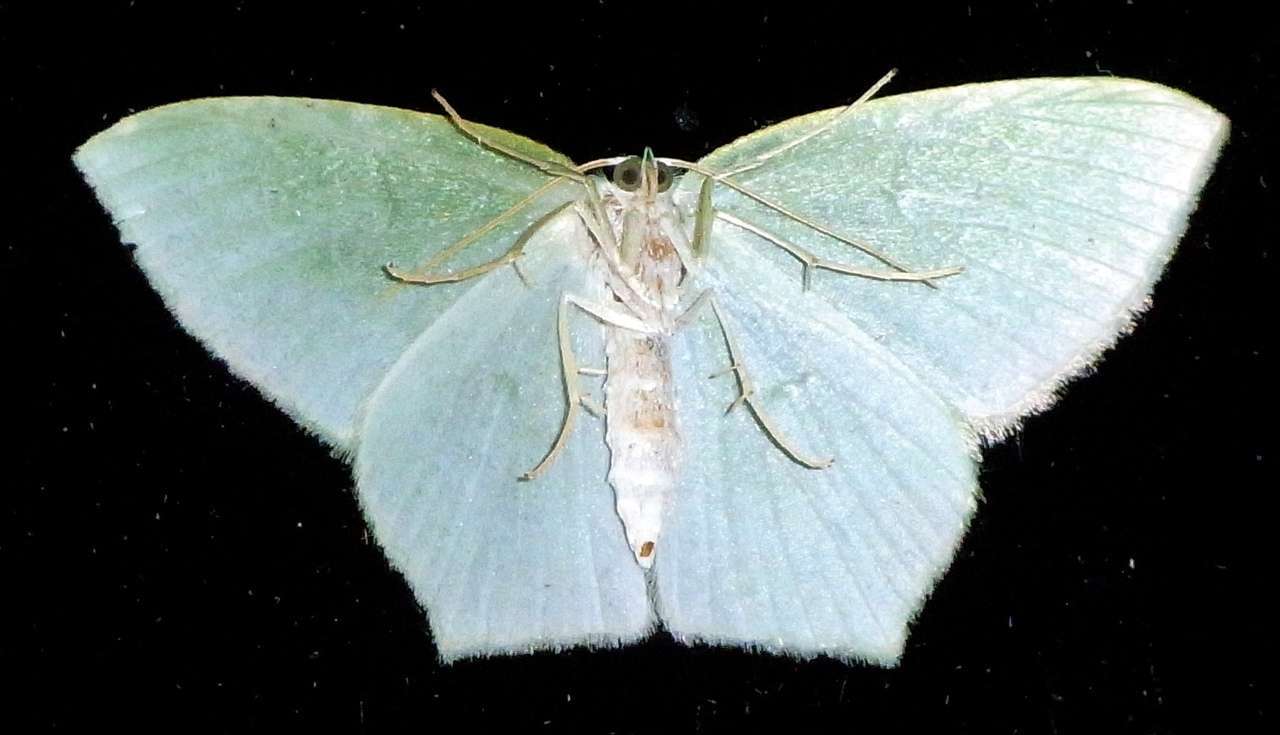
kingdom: Animalia
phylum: Arthropoda
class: Insecta
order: Lepidoptera
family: Geometridae
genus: Maxates
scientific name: Maxates centrophylla
